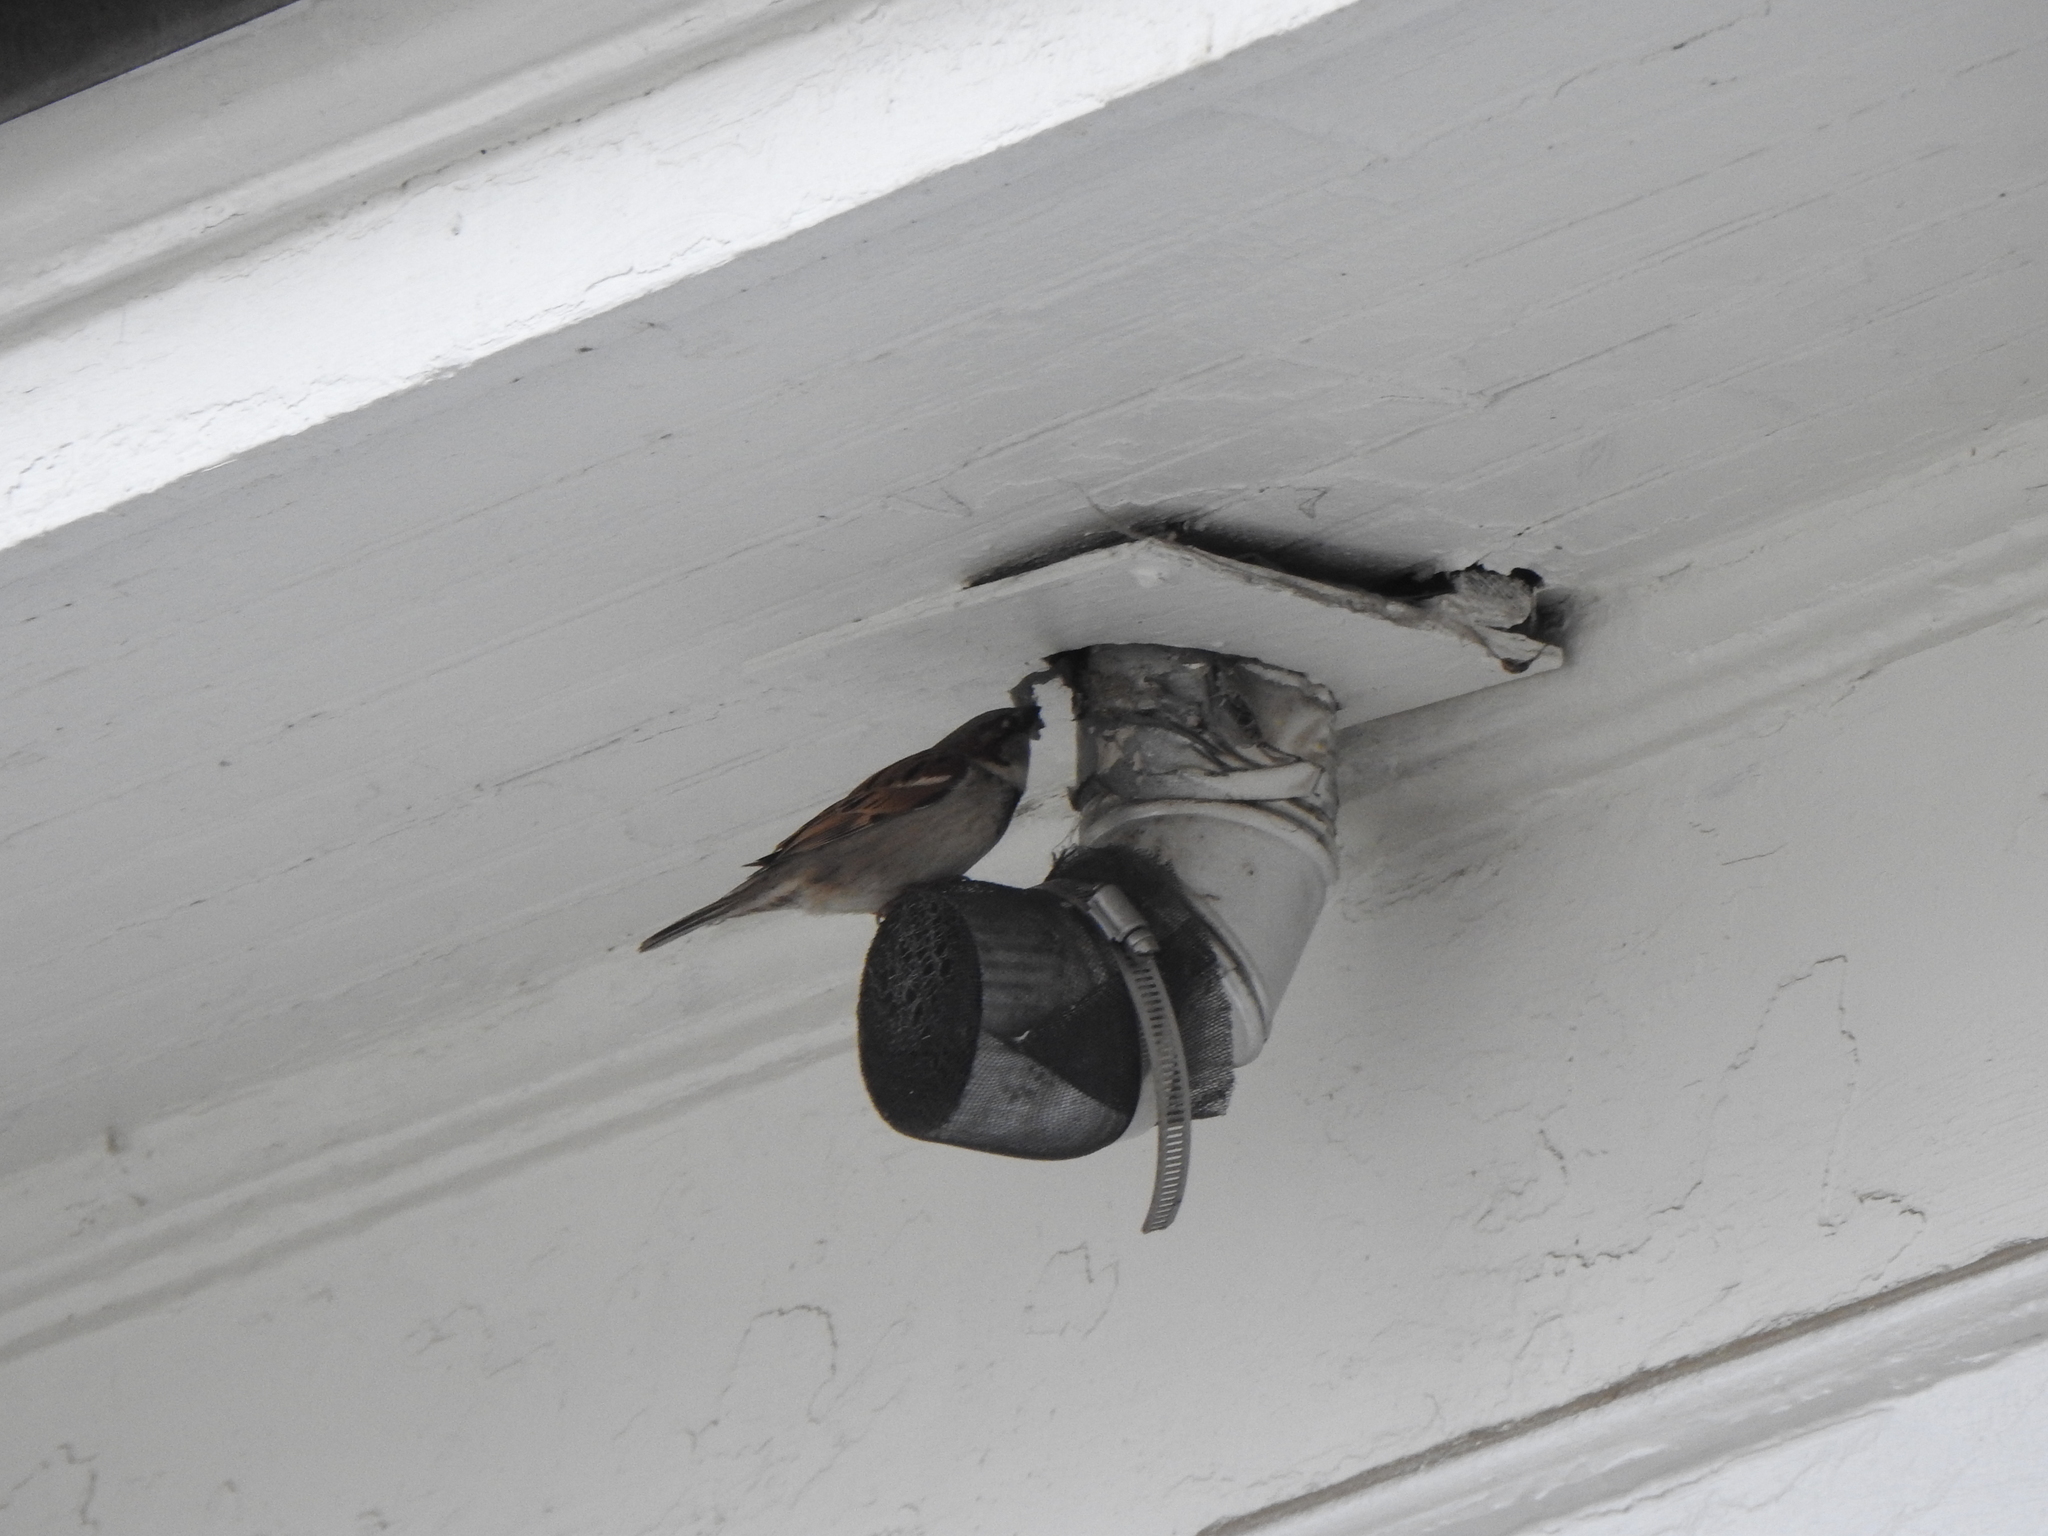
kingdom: Animalia
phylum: Chordata
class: Aves
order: Passeriformes
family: Passeridae
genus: Passer
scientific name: Passer domesticus
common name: House sparrow
